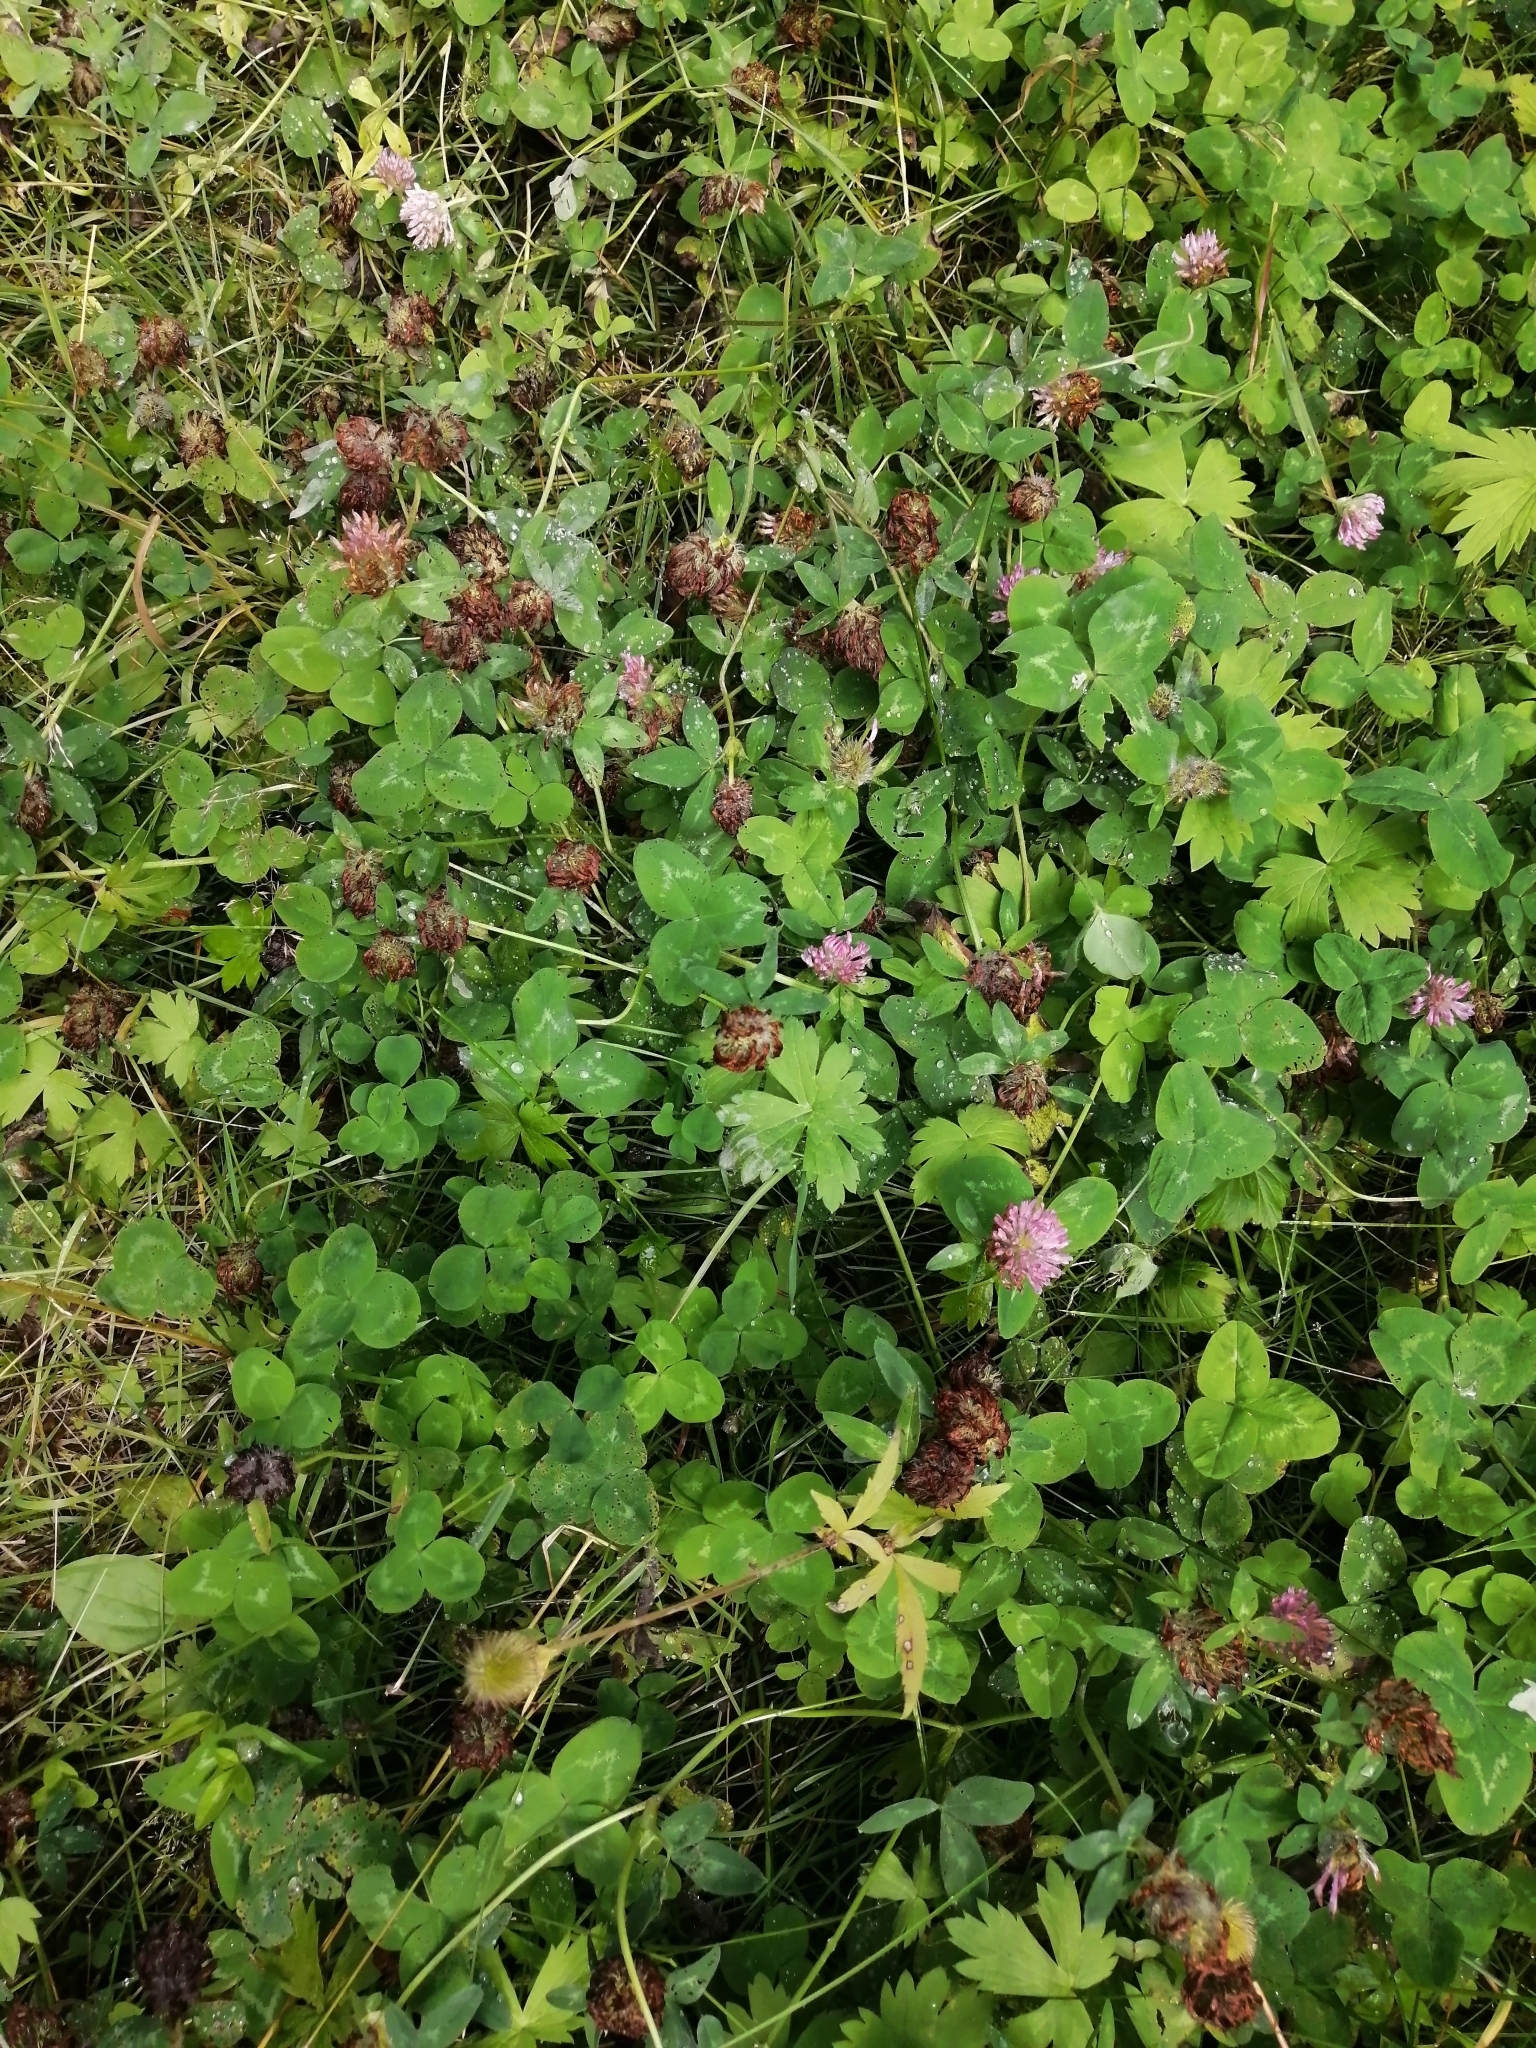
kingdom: Plantae
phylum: Tracheophyta
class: Magnoliopsida
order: Fabales
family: Fabaceae
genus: Trifolium
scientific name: Trifolium pratense
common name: Red clover
